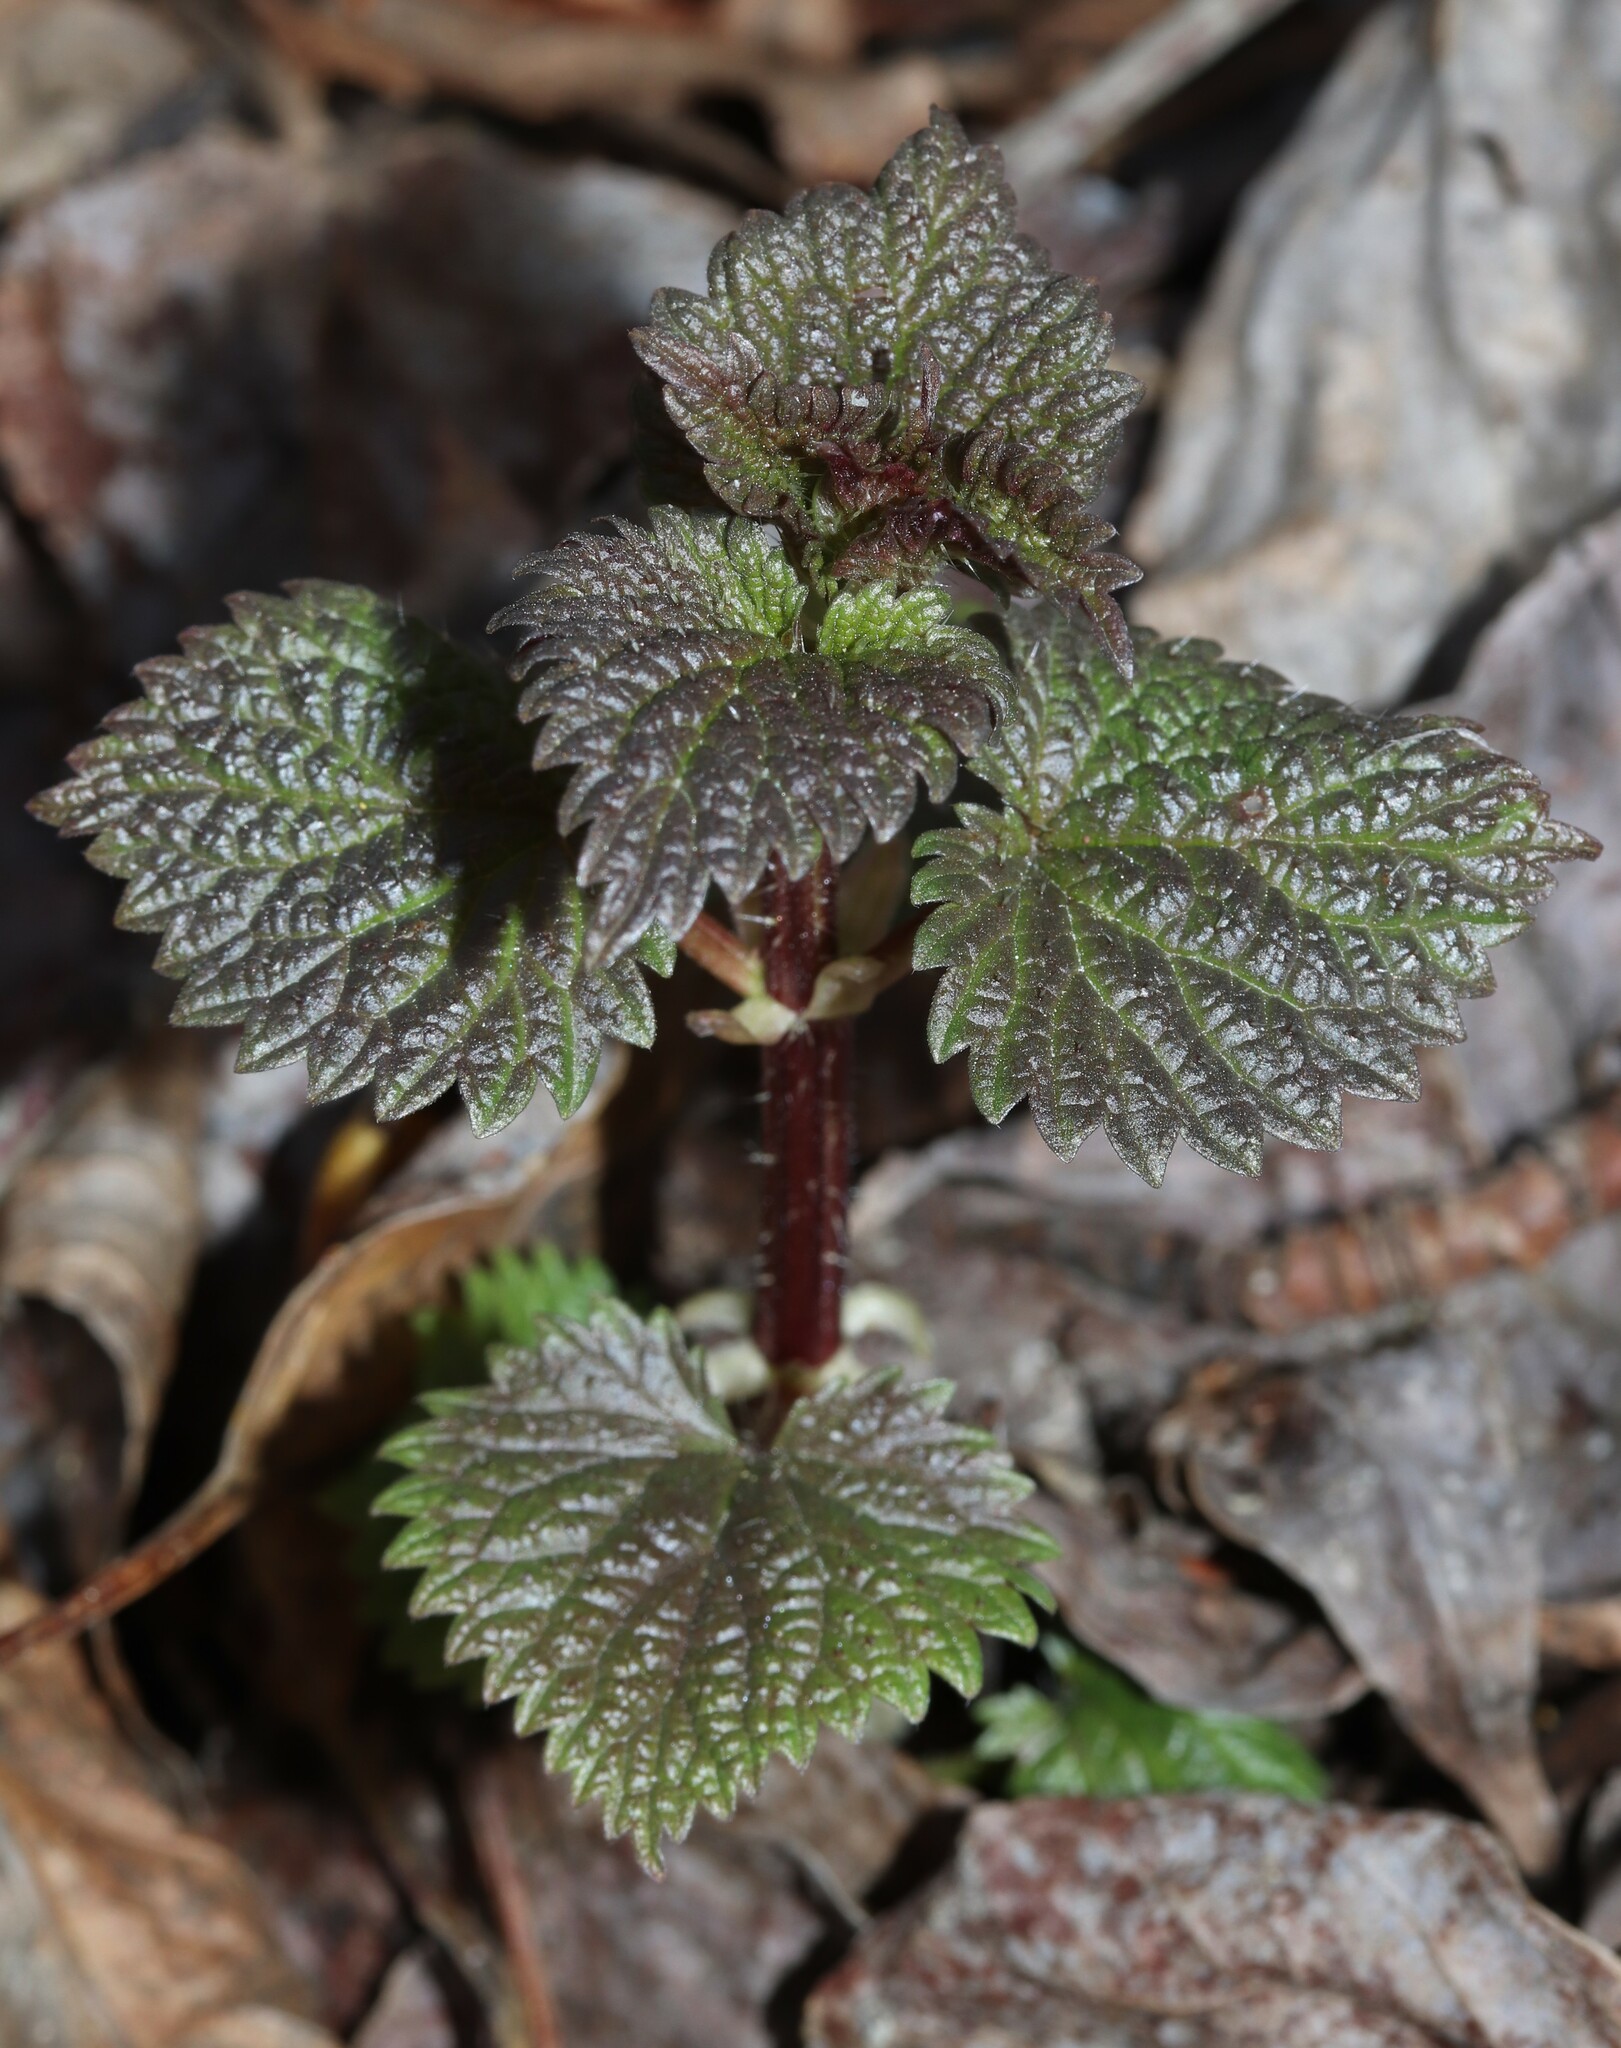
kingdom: Plantae
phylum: Tracheophyta
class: Magnoliopsida
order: Rosales
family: Urticaceae
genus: Urtica
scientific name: Urtica gracilis
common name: Slender stinging nettle
